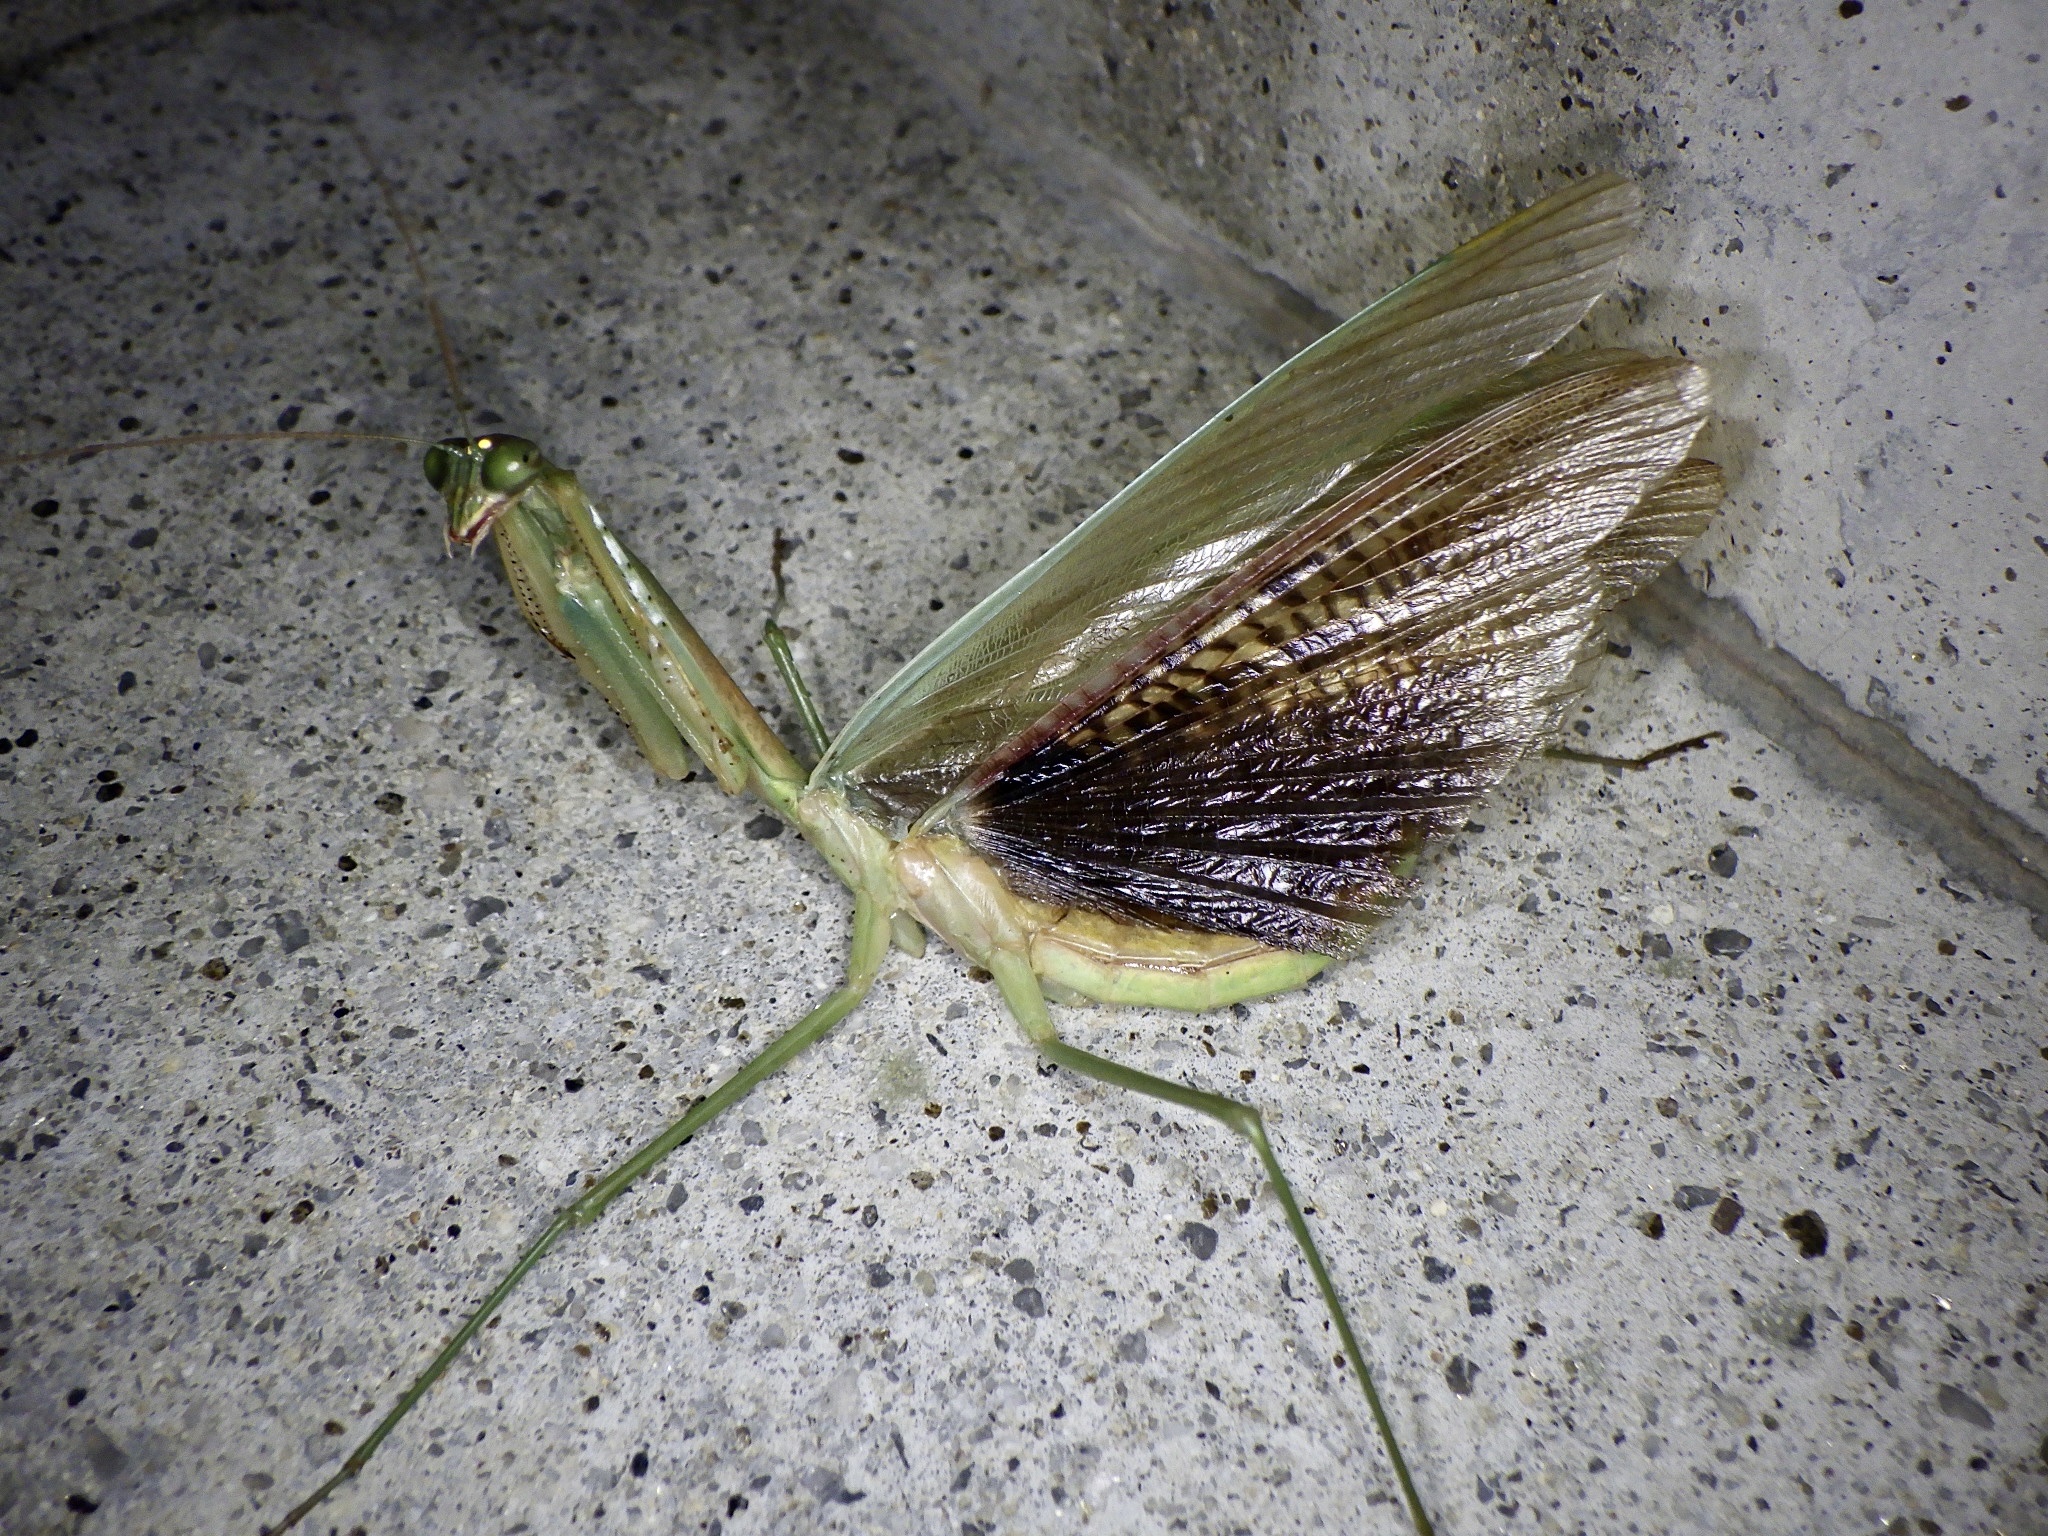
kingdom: Animalia
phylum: Arthropoda
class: Insecta
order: Mantodea
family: Mantidae
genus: Tenodera
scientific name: Tenodera sinensis
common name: Chinese mantis
